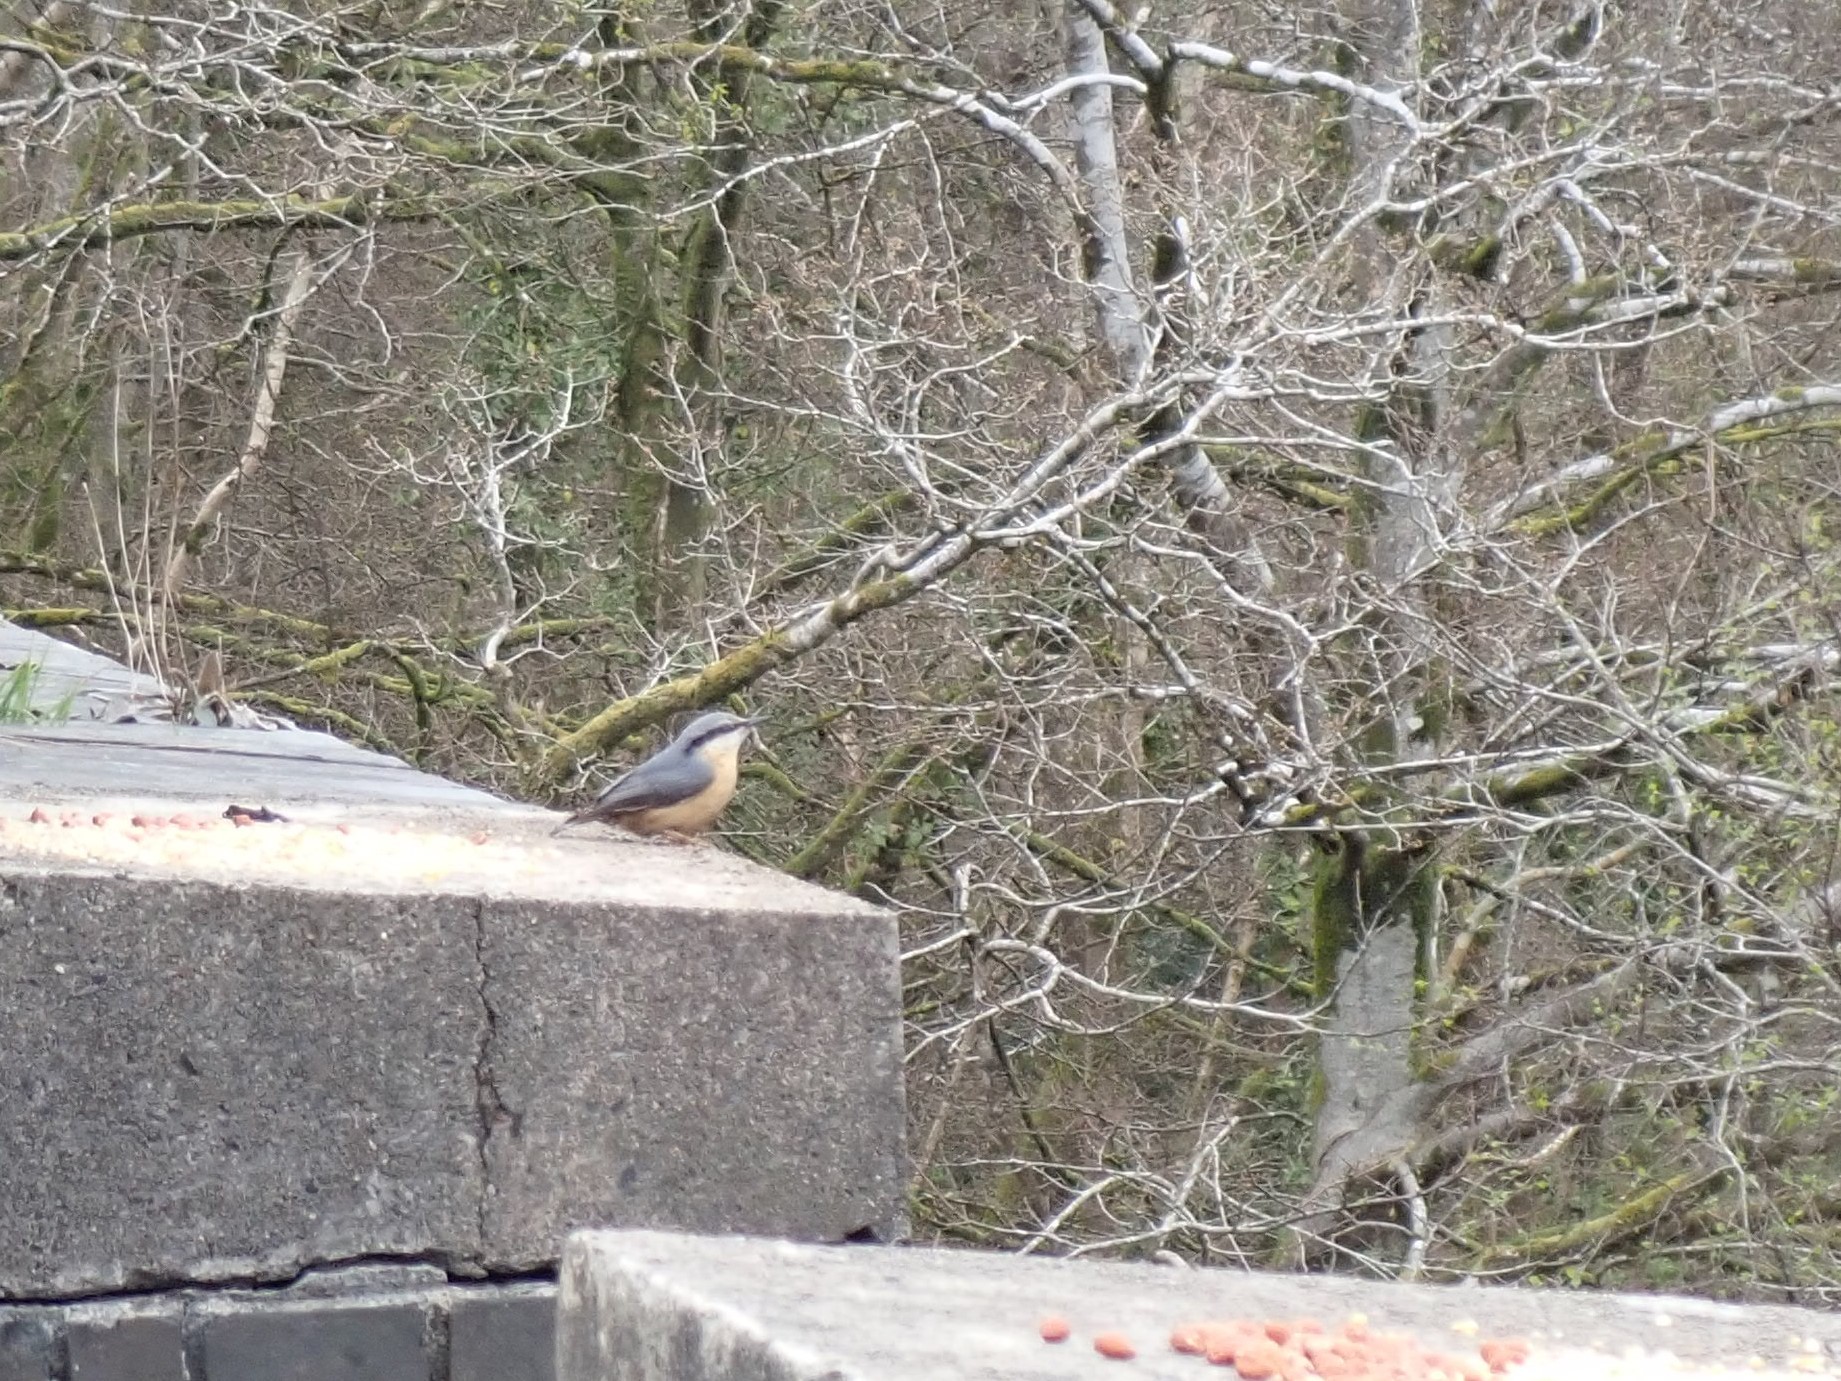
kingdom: Animalia
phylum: Chordata
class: Aves
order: Passeriformes
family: Sittidae
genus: Sitta
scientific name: Sitta europaea
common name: Eurasian nuthatch
